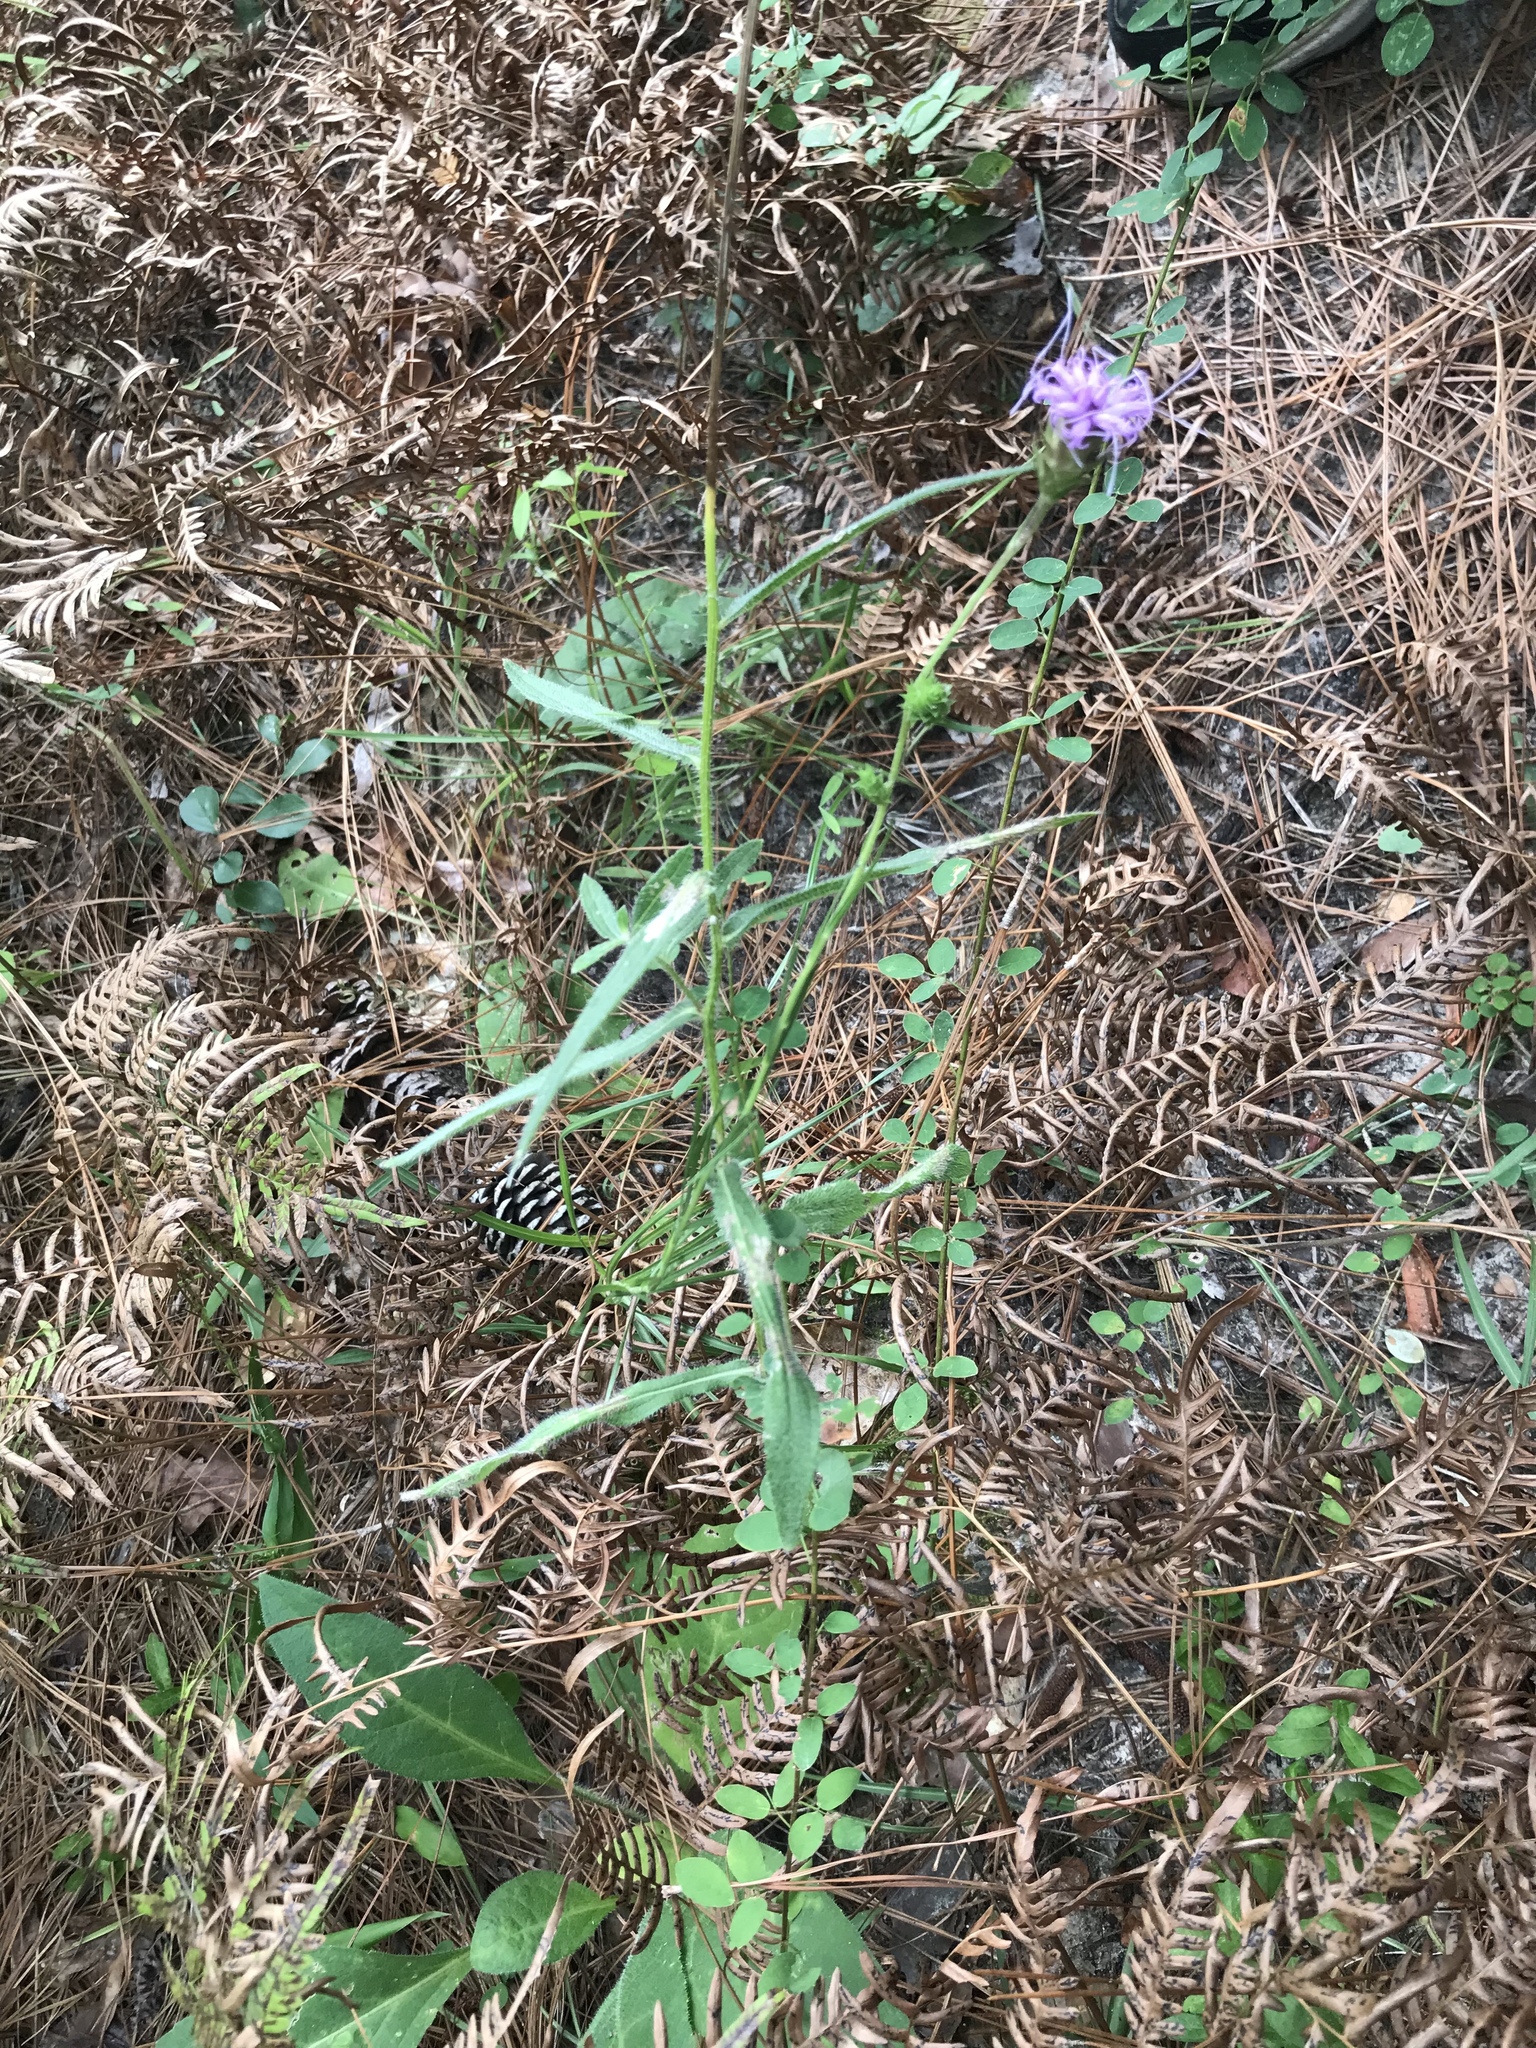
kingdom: Plantae
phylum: Tracheophyta
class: Magnoliopsida
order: Asterales
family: Asteraceae
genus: Liatris
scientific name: Liatris squarrosa
